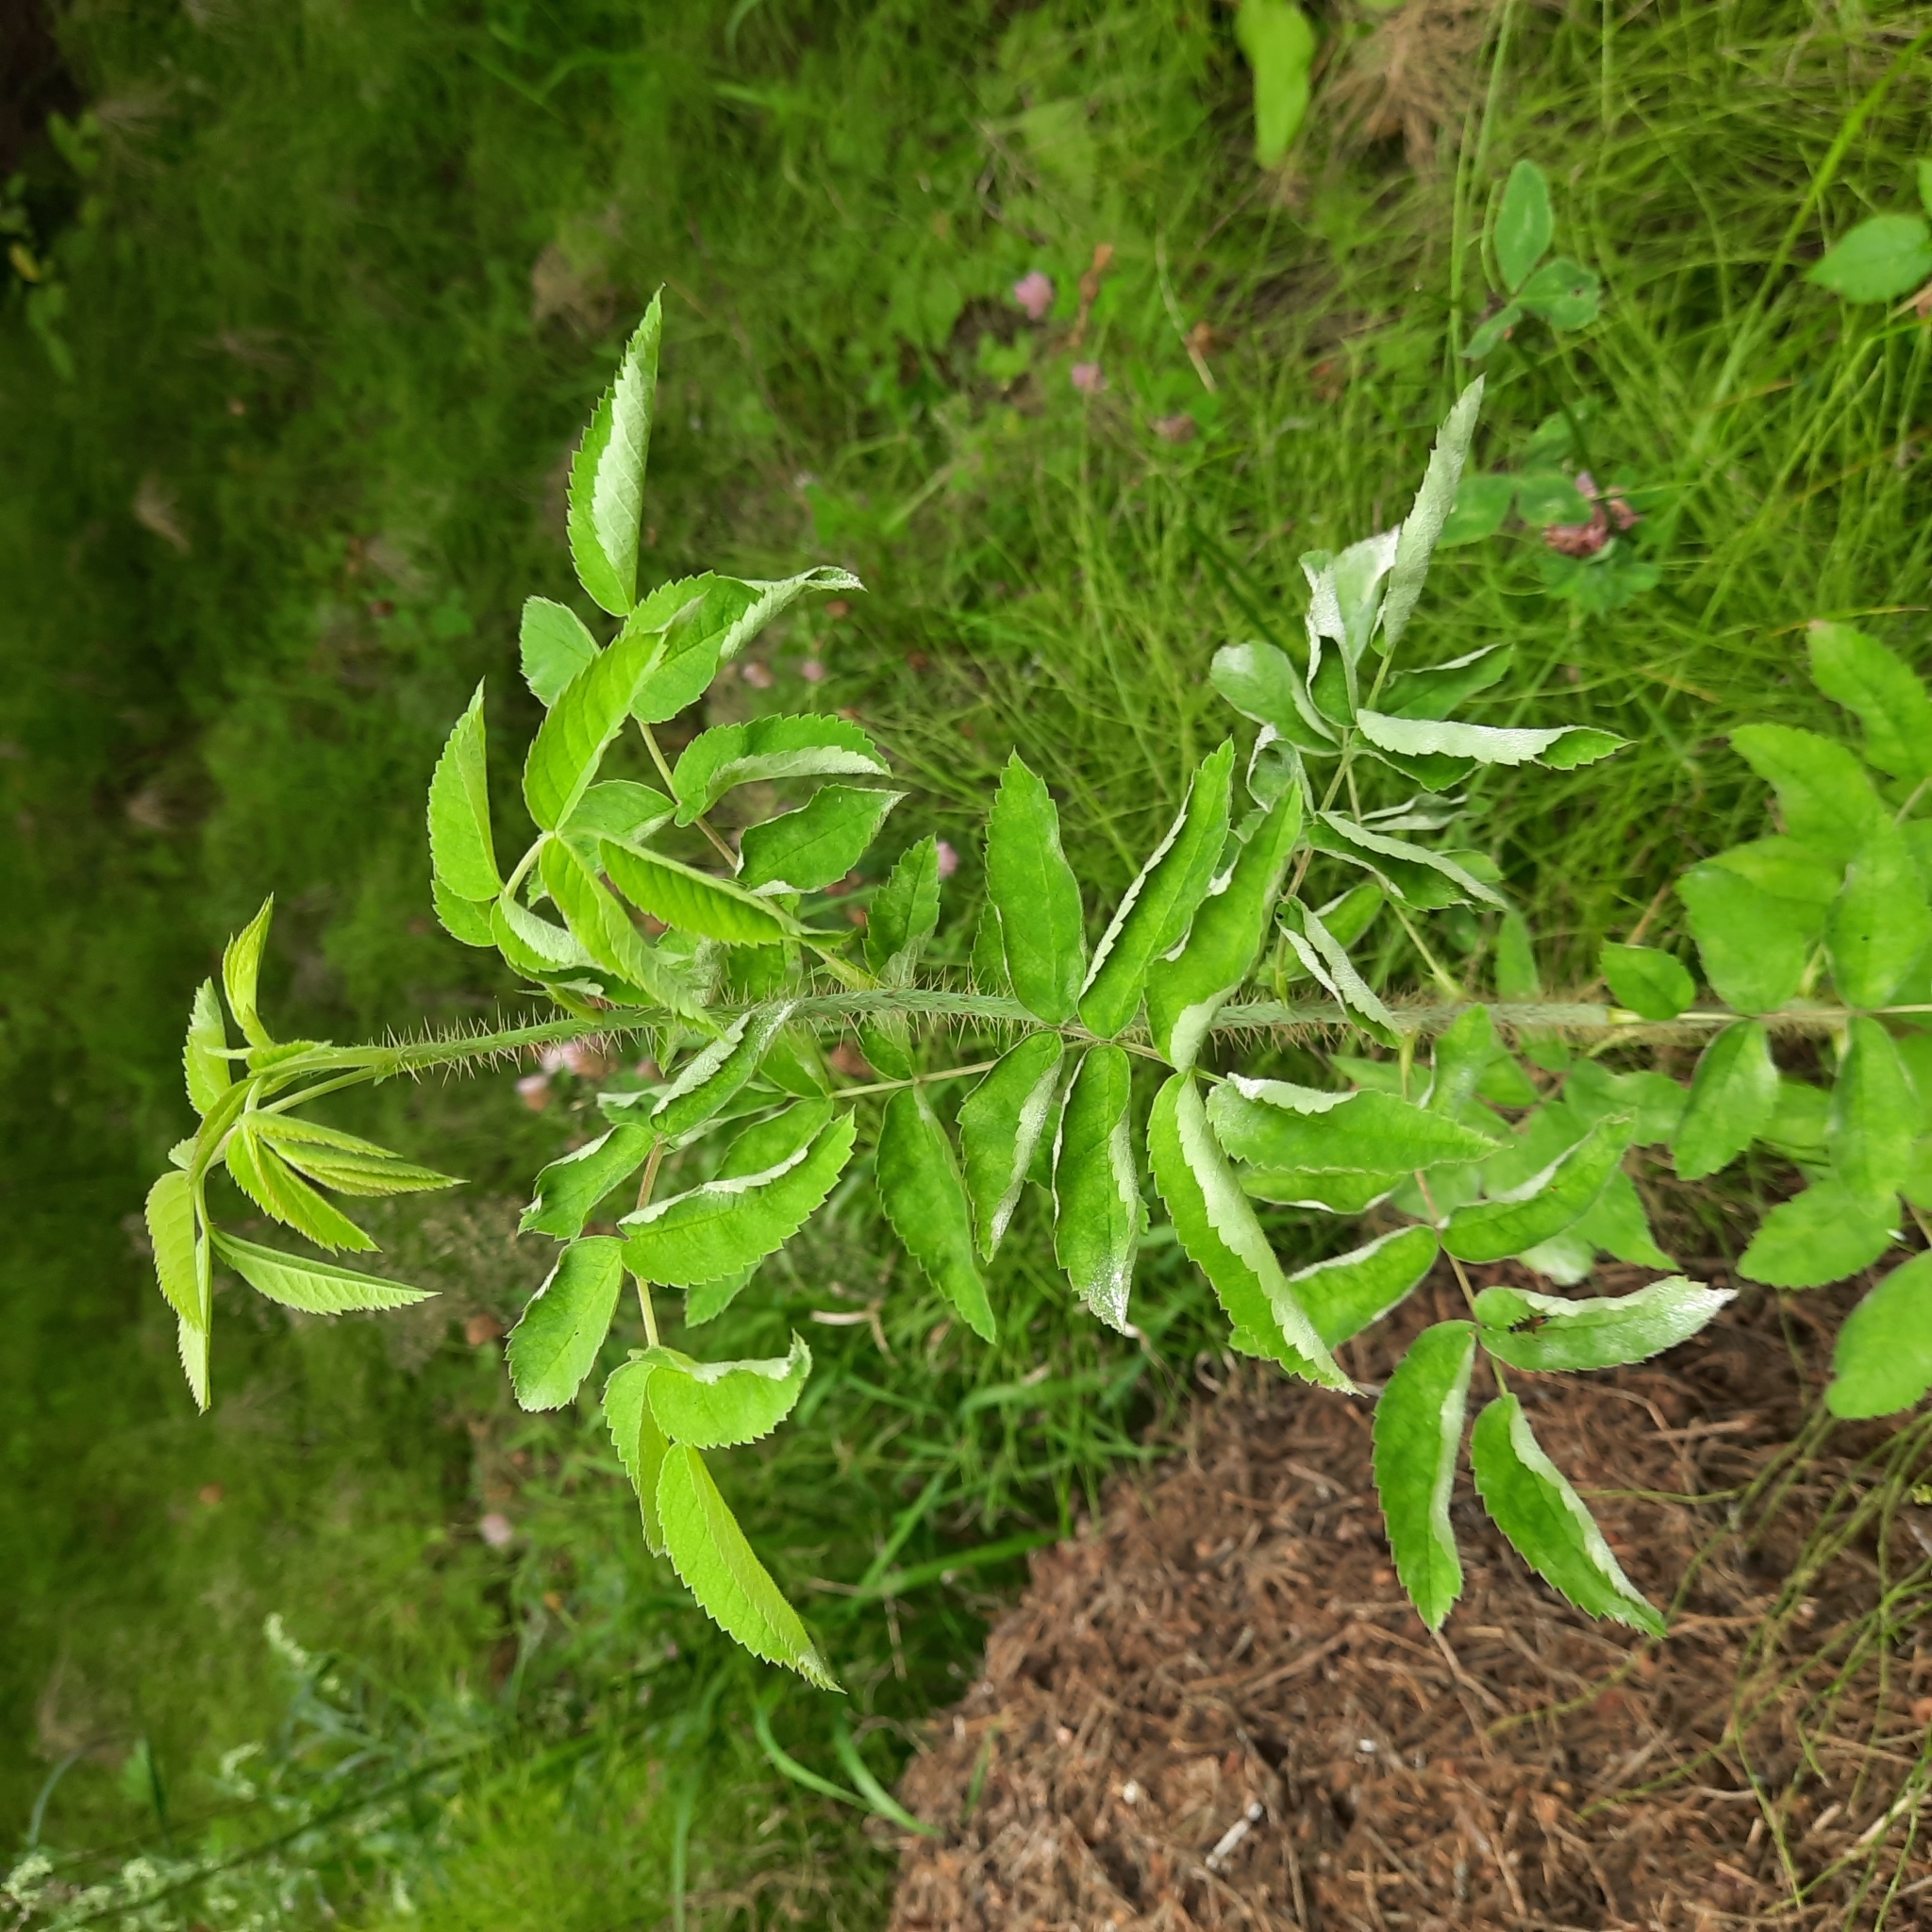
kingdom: Plantae
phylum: Tracheophyta
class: Magnoliopsida
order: Rosales
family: Rosaceae
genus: Rosa
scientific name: Rosa acicularis
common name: Prickly rose
